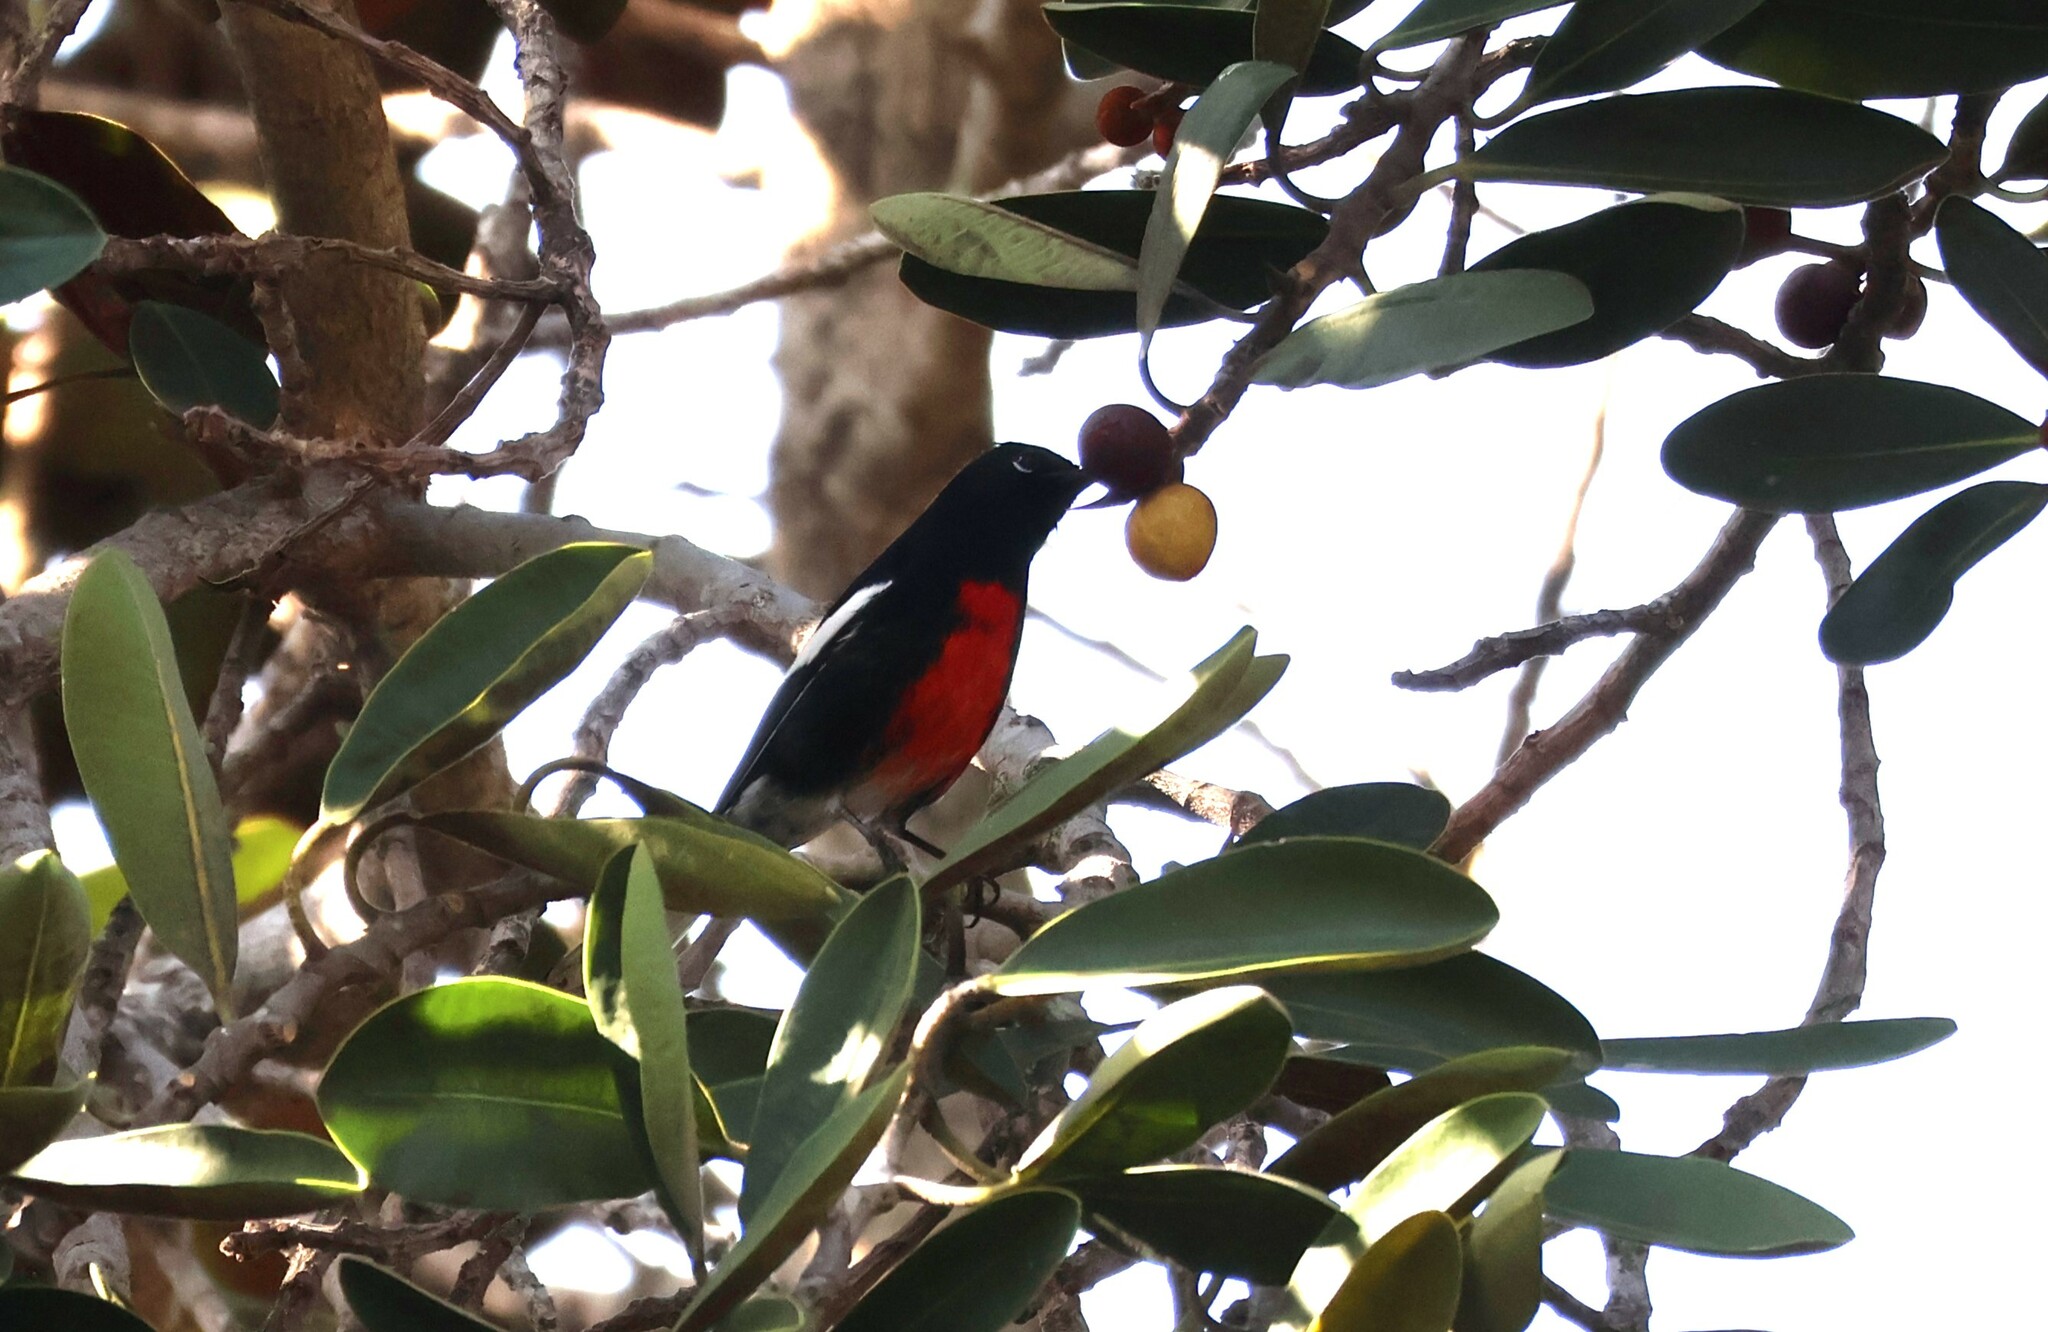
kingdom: Animalia
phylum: Chordata
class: Aves
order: Passeriformes
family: Parulidae
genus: Myioborus
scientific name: Myioborus pictus
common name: Painted whitestart
